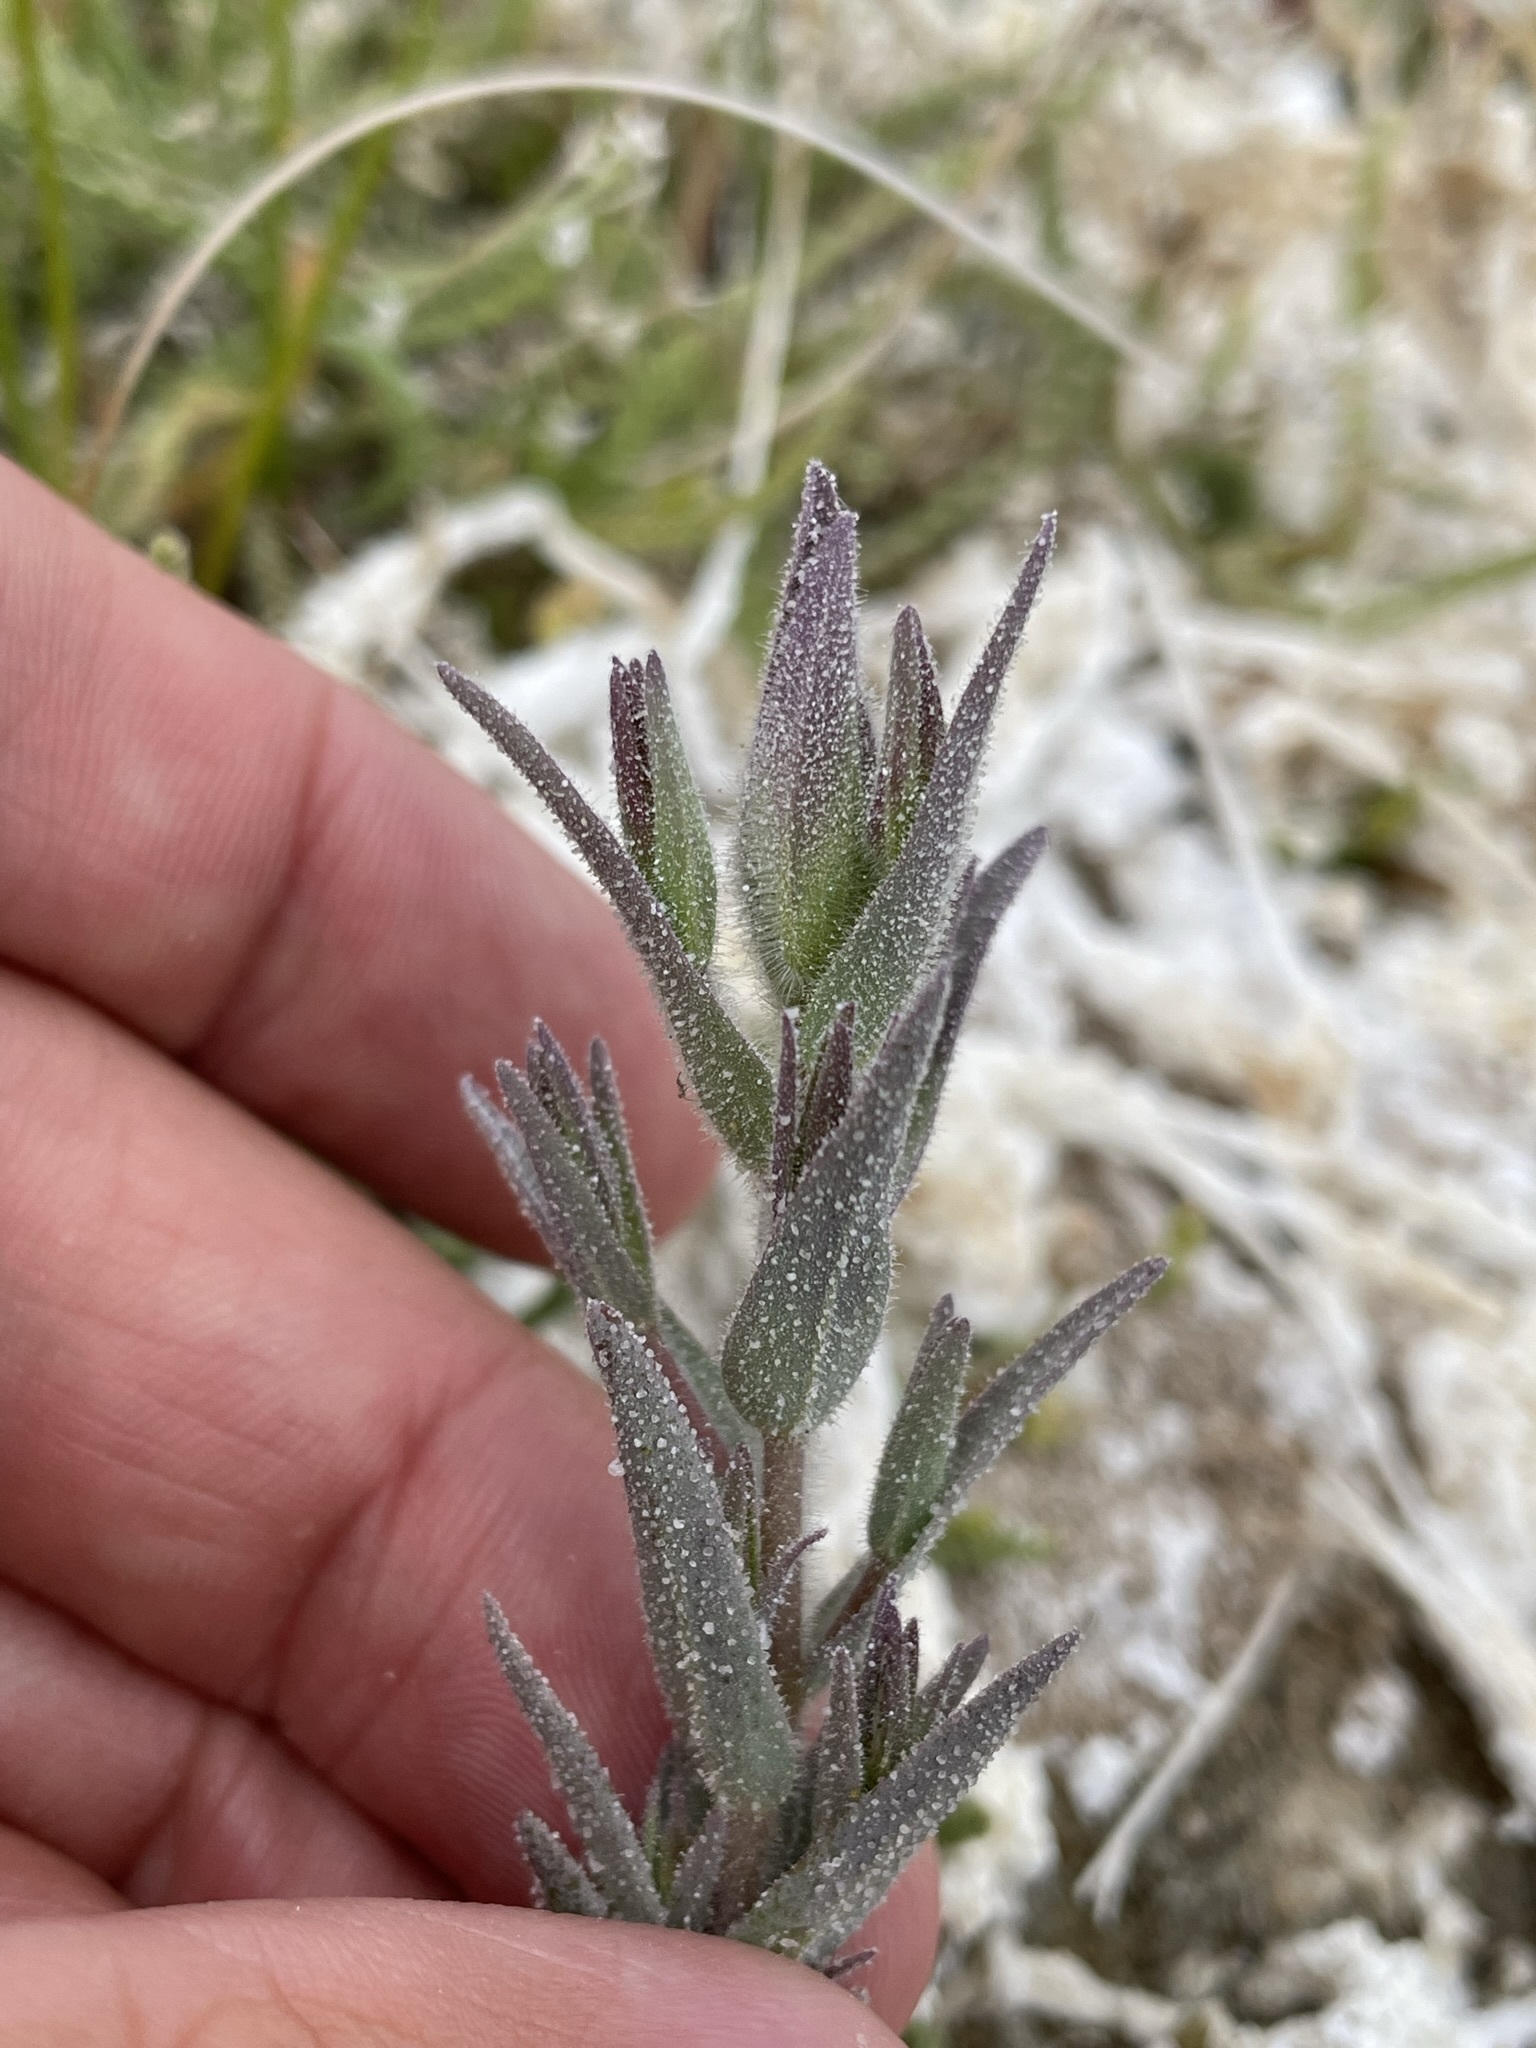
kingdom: Plantae
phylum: Tracheophyta
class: Magnoliopsida
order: Lamiales
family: Orobanchaceae
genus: Chloropyron
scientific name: Chloropyron maritimum
